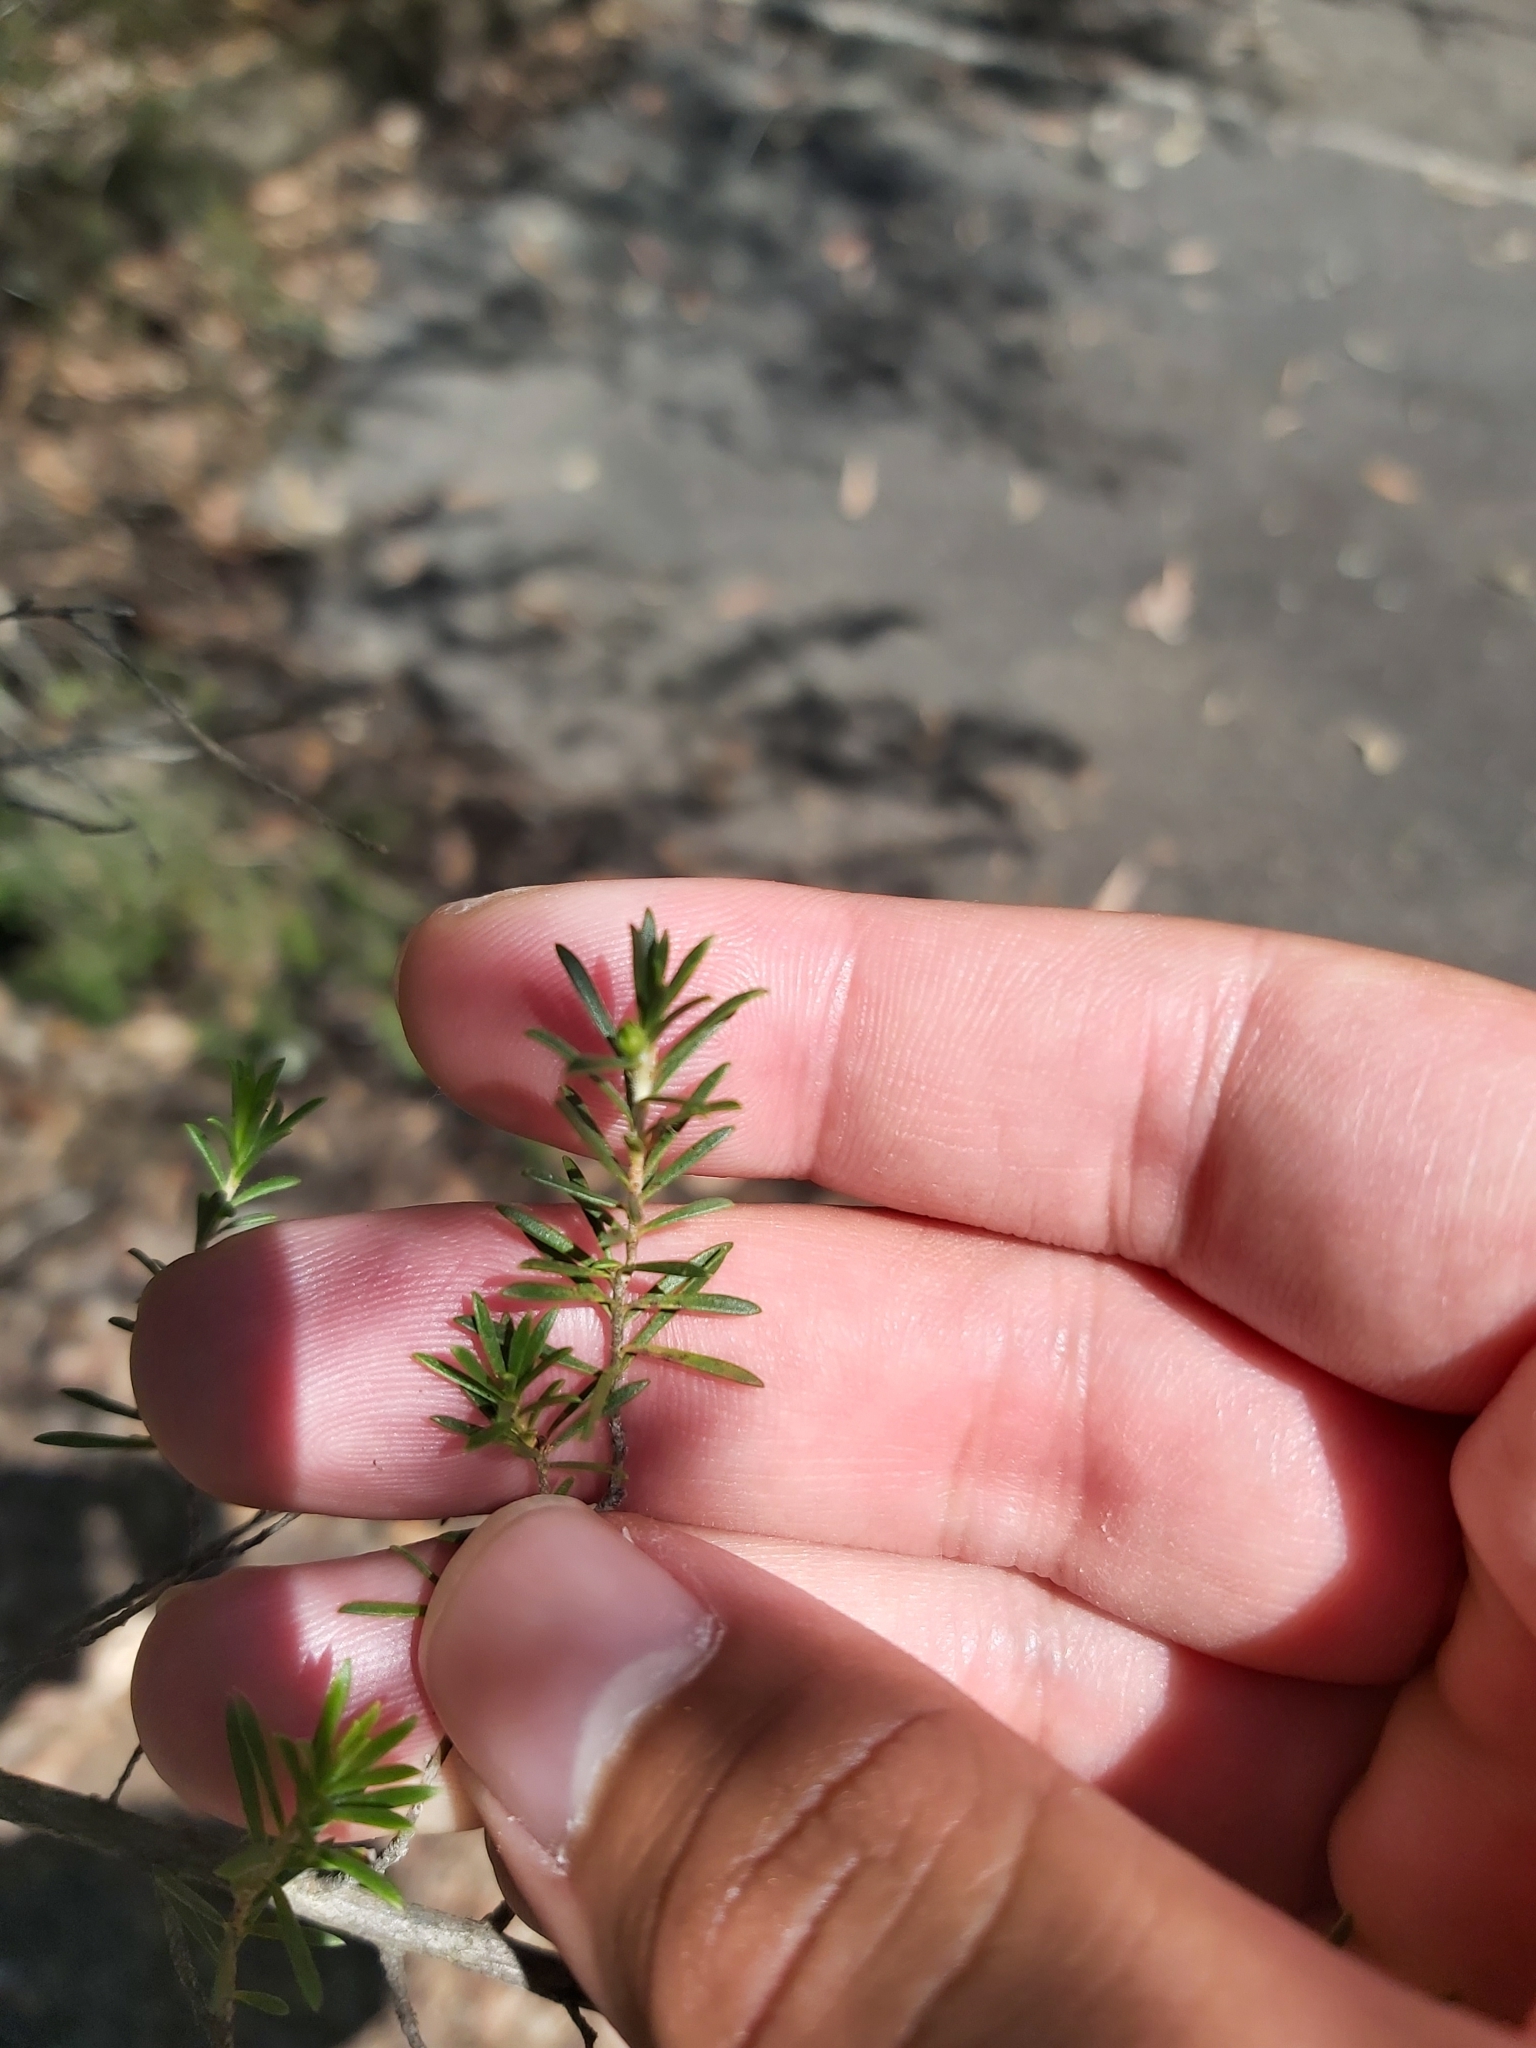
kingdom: Plantae
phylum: Tracheophyta
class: Magnoliopsida
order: Myrtales
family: Myrtaceae
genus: Kunzea
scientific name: Kunzea ambigua
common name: Tickbush
